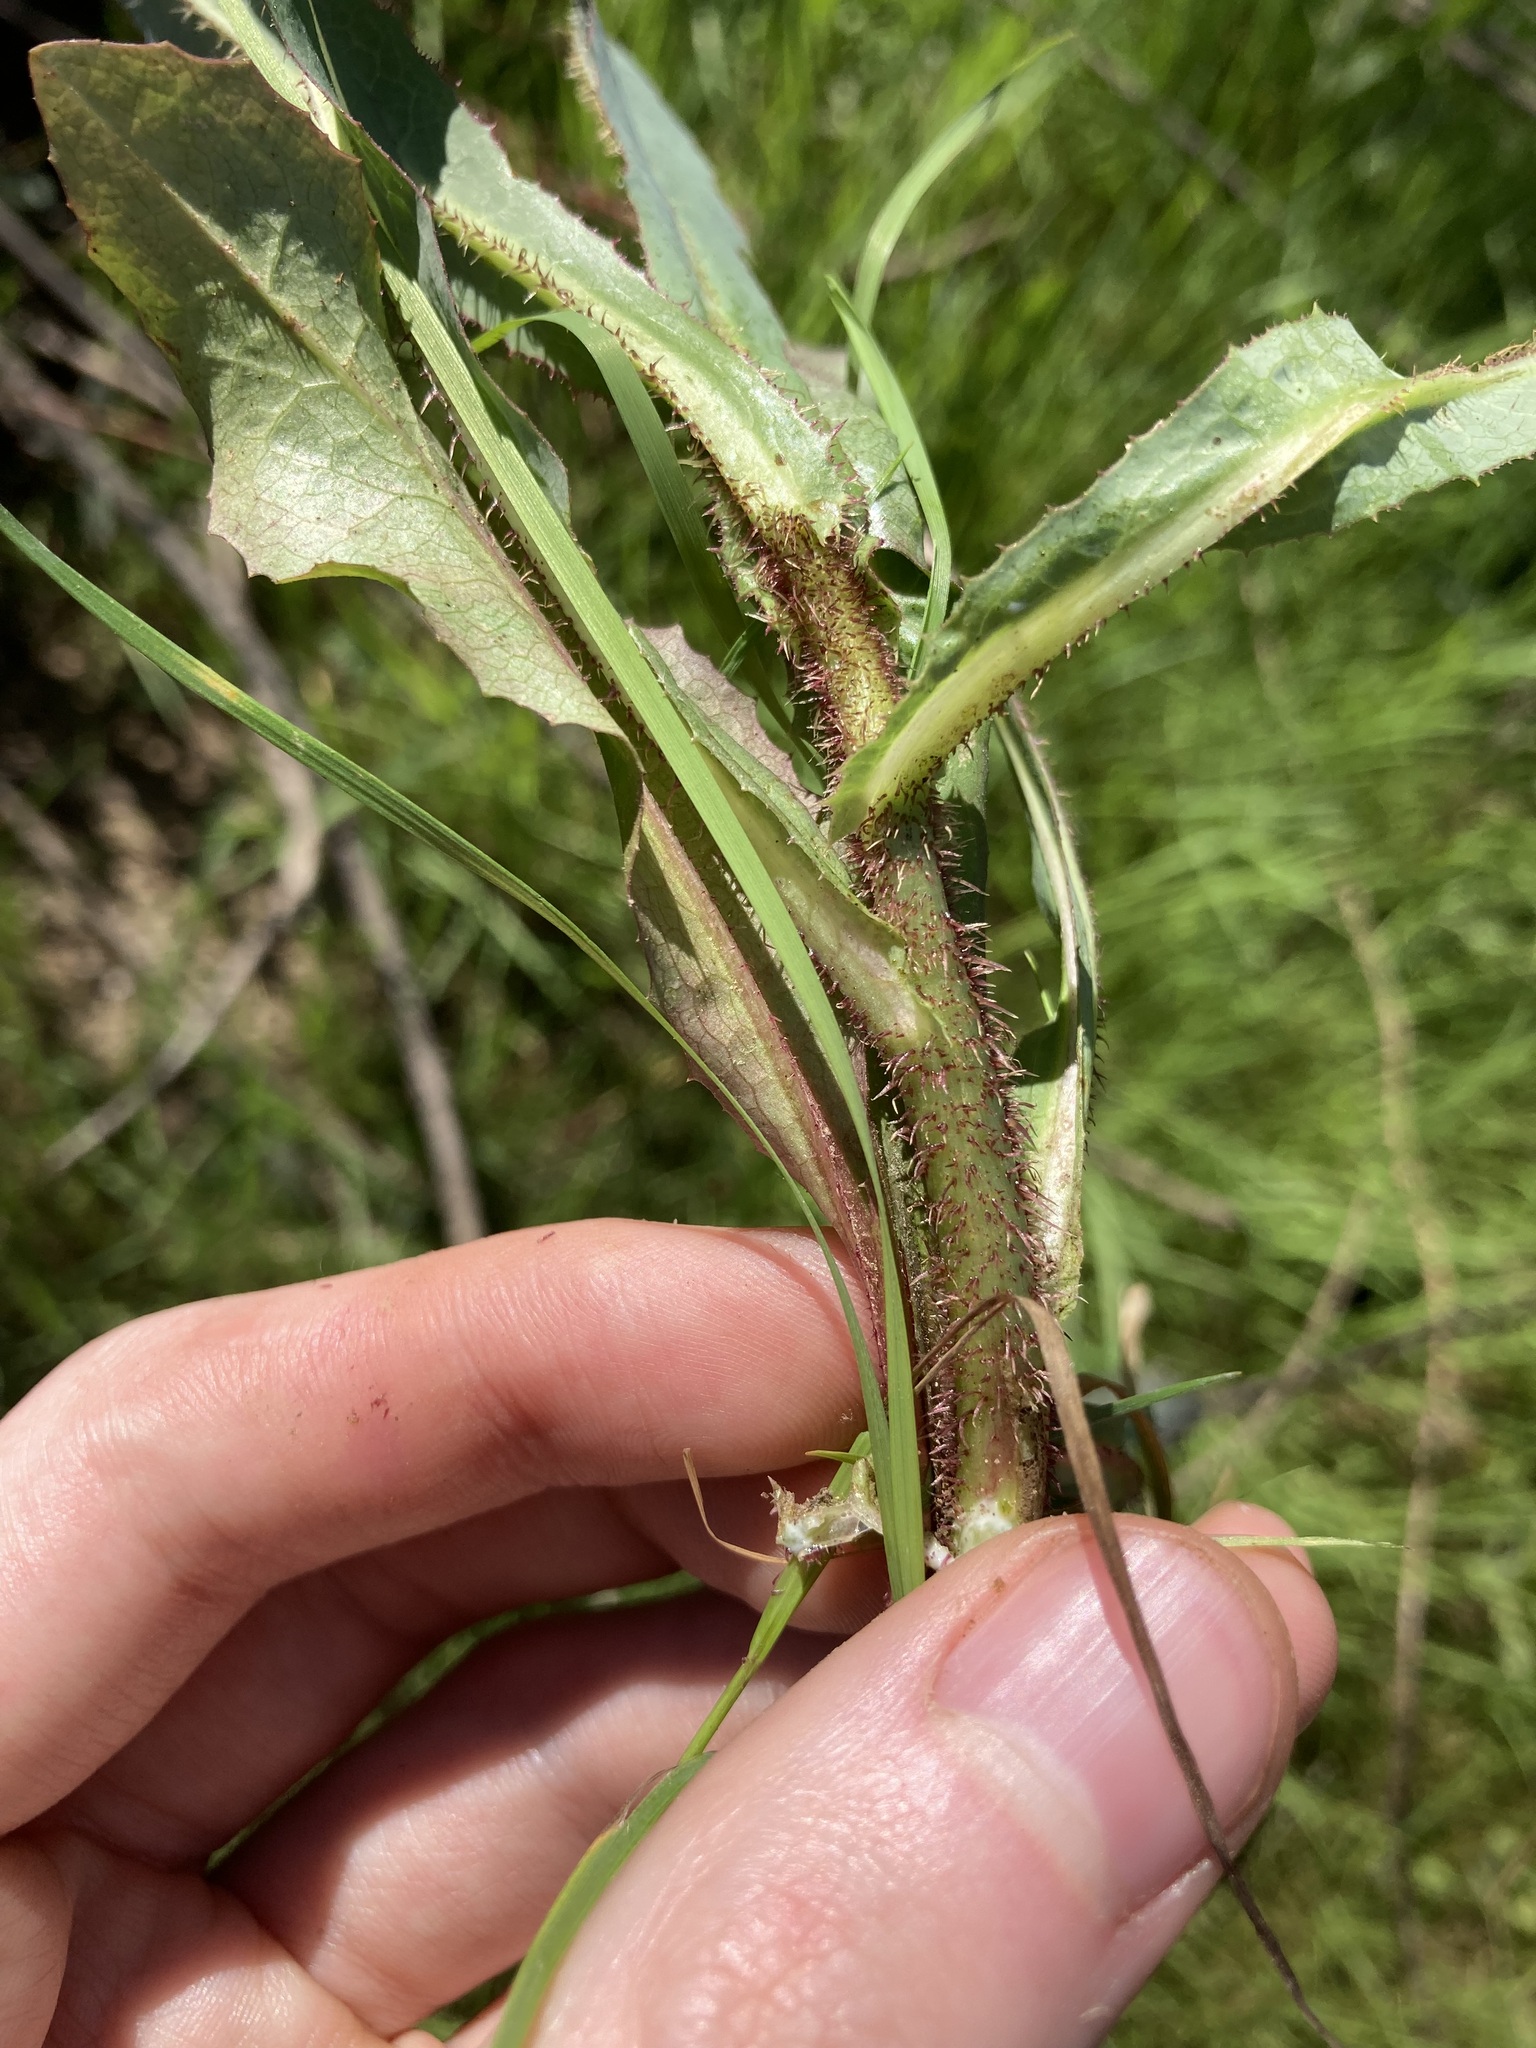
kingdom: Plantae
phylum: Tracheophyta
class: Magnoliopsida
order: Asterales
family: Asteraceae
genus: Lactuca
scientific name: Lactuca serriola
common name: Prickly lettuce
